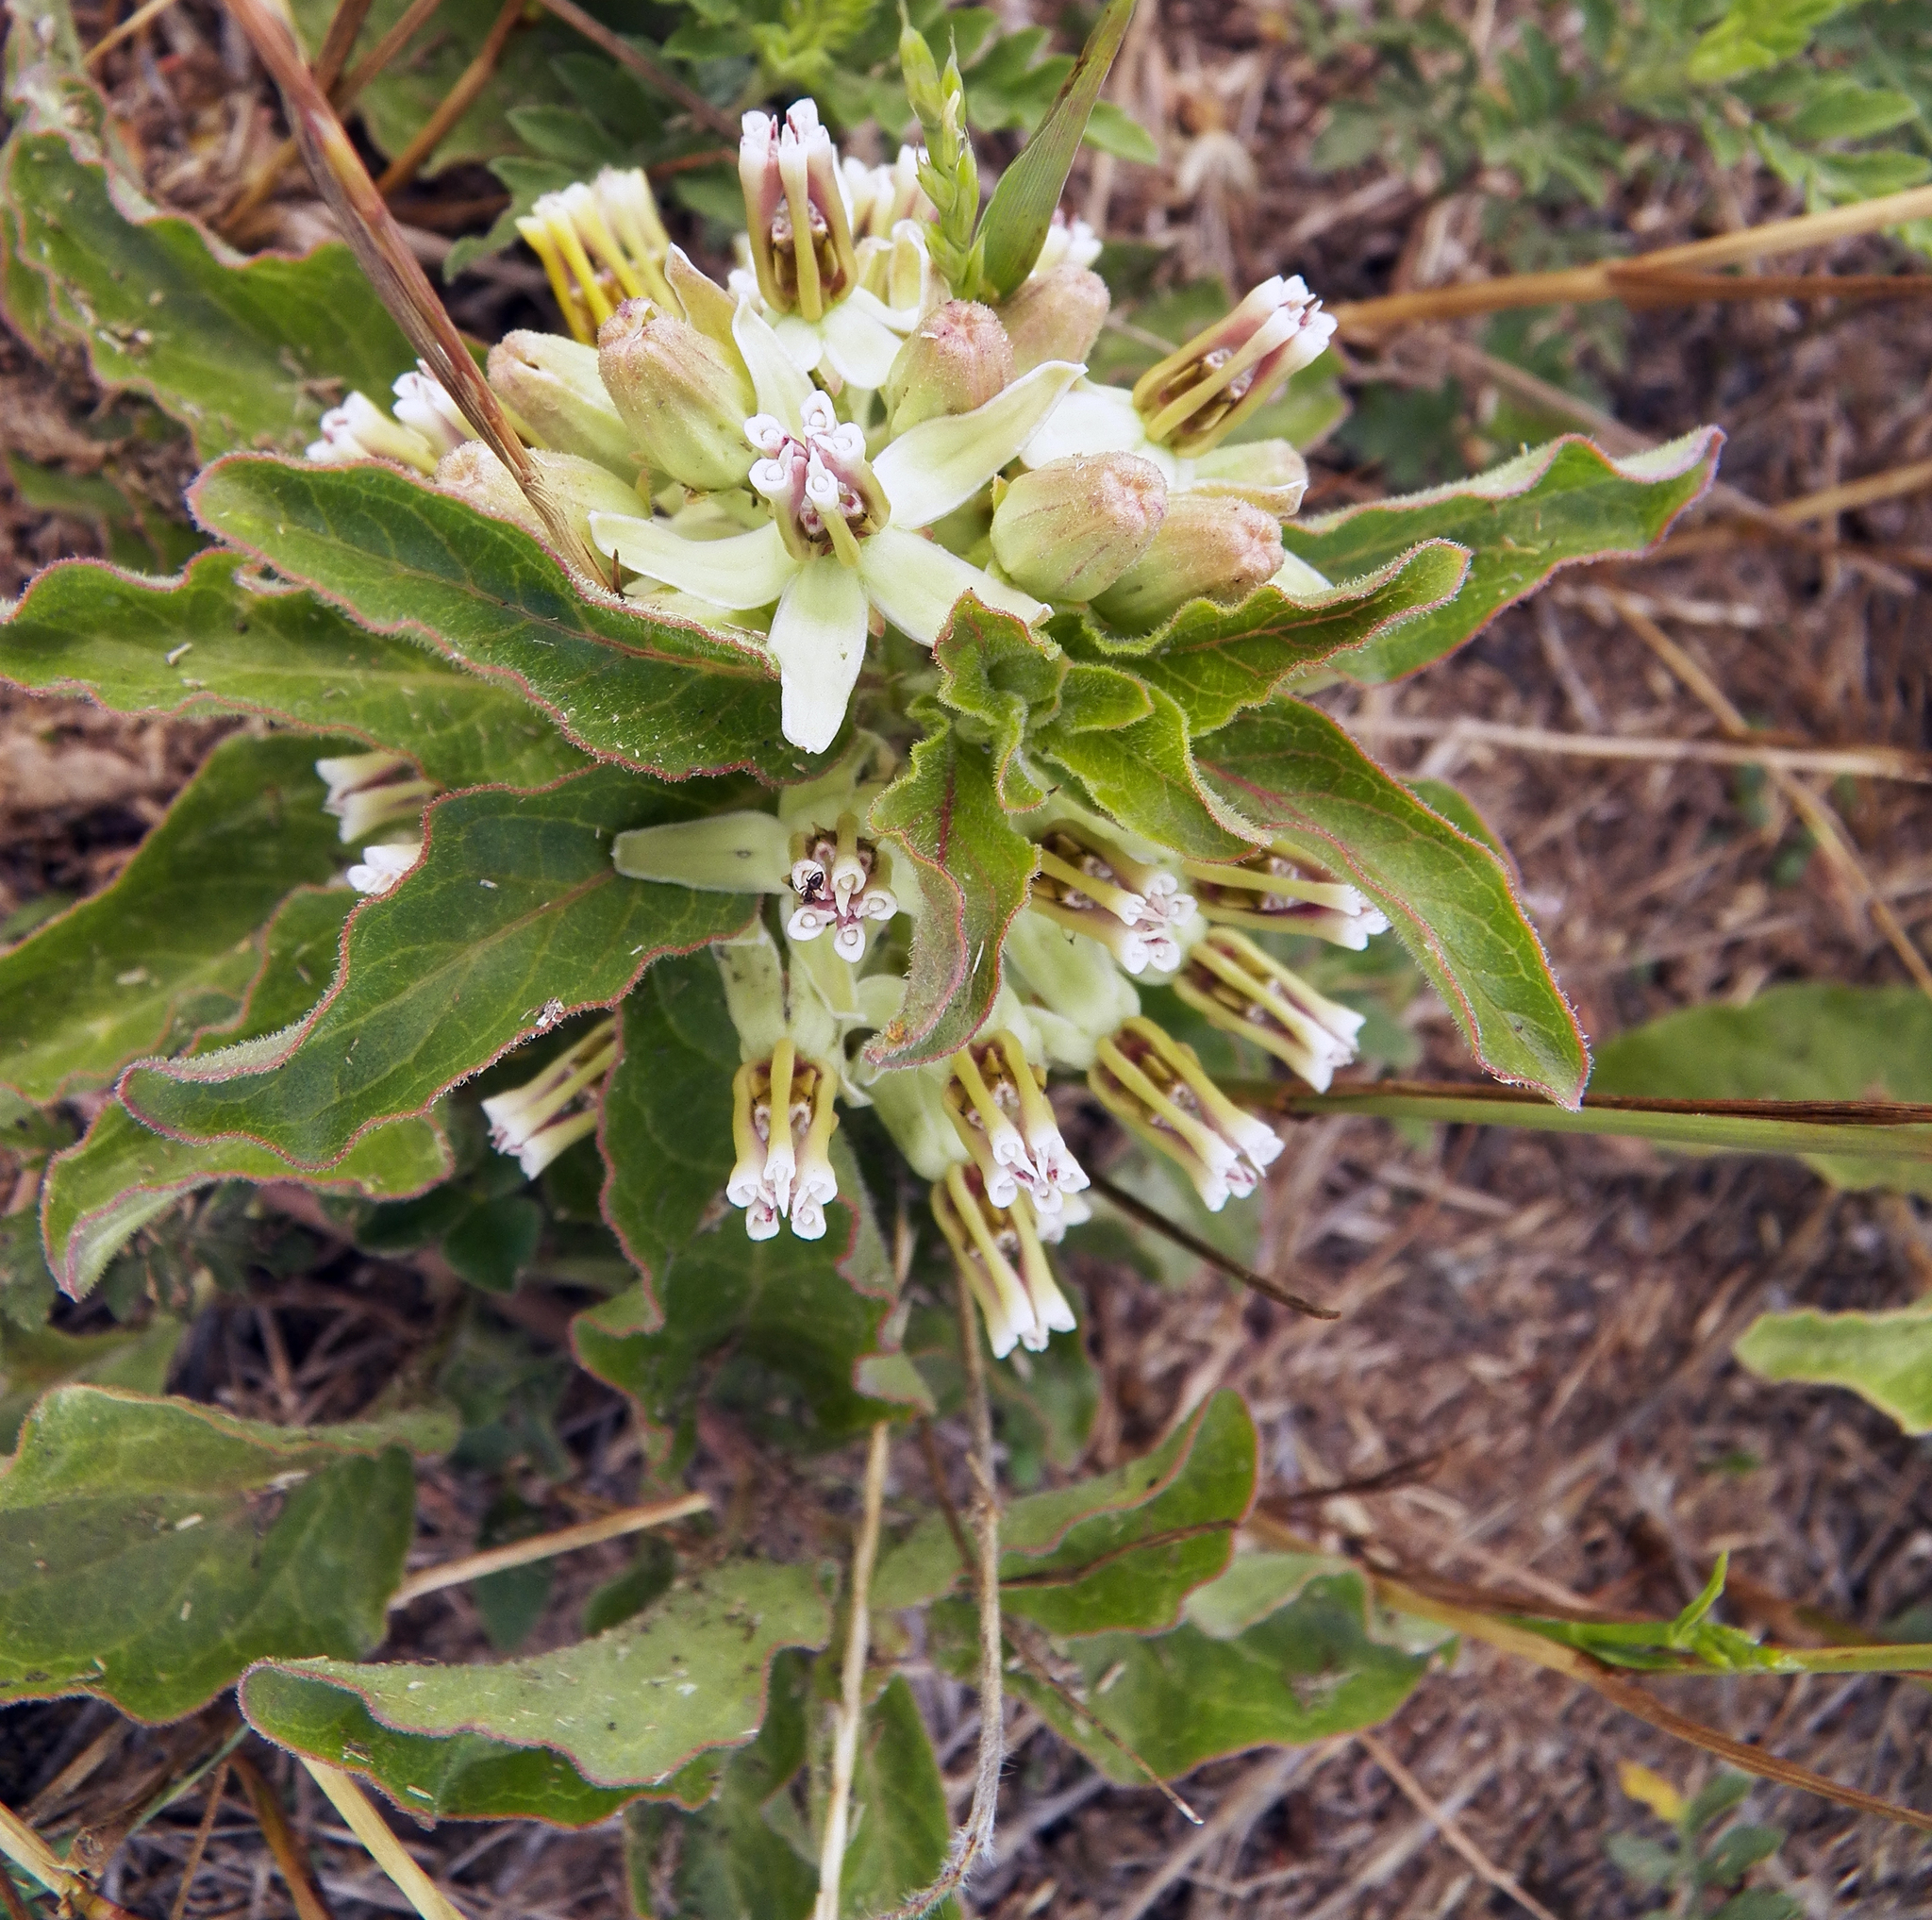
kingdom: Plantae
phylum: Tracheophyta
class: Magnoliopsida
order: Gentianales
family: Apocynaceae
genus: Asclepias
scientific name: Asclepias oenotheroides
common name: Zizotes milkweed
